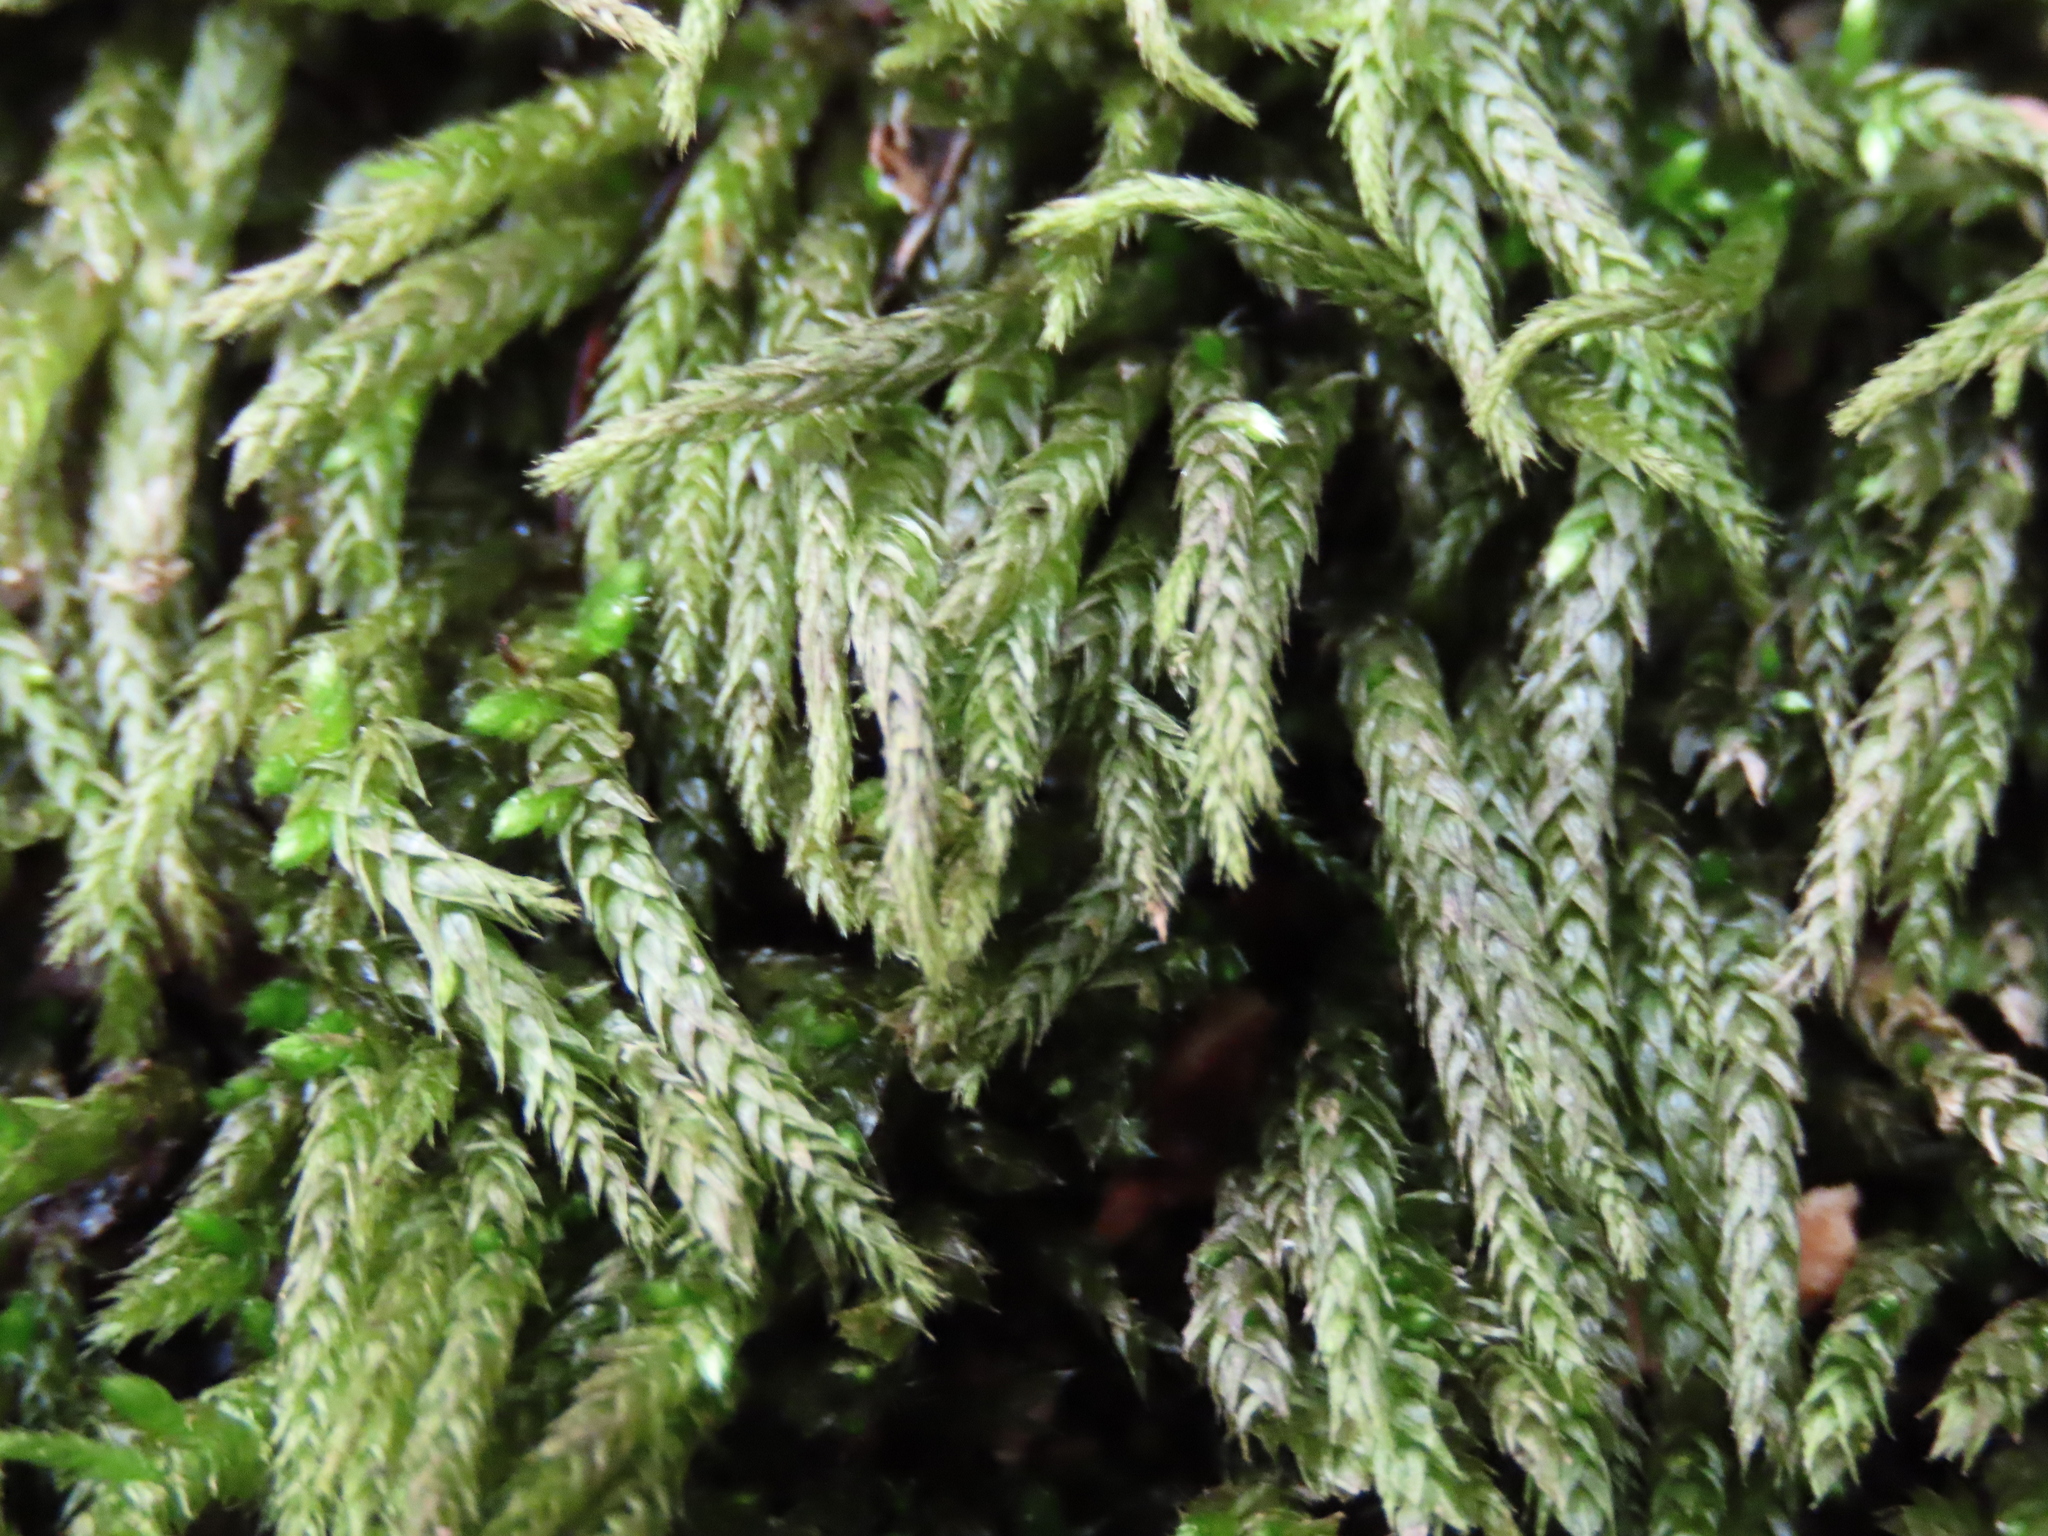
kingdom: Plantae
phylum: Bryophyta
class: Bryopsida
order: Hypnales
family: Entodontaceae
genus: Entodon
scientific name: Entodon seductrix
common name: Round-stemmed entodon moss
